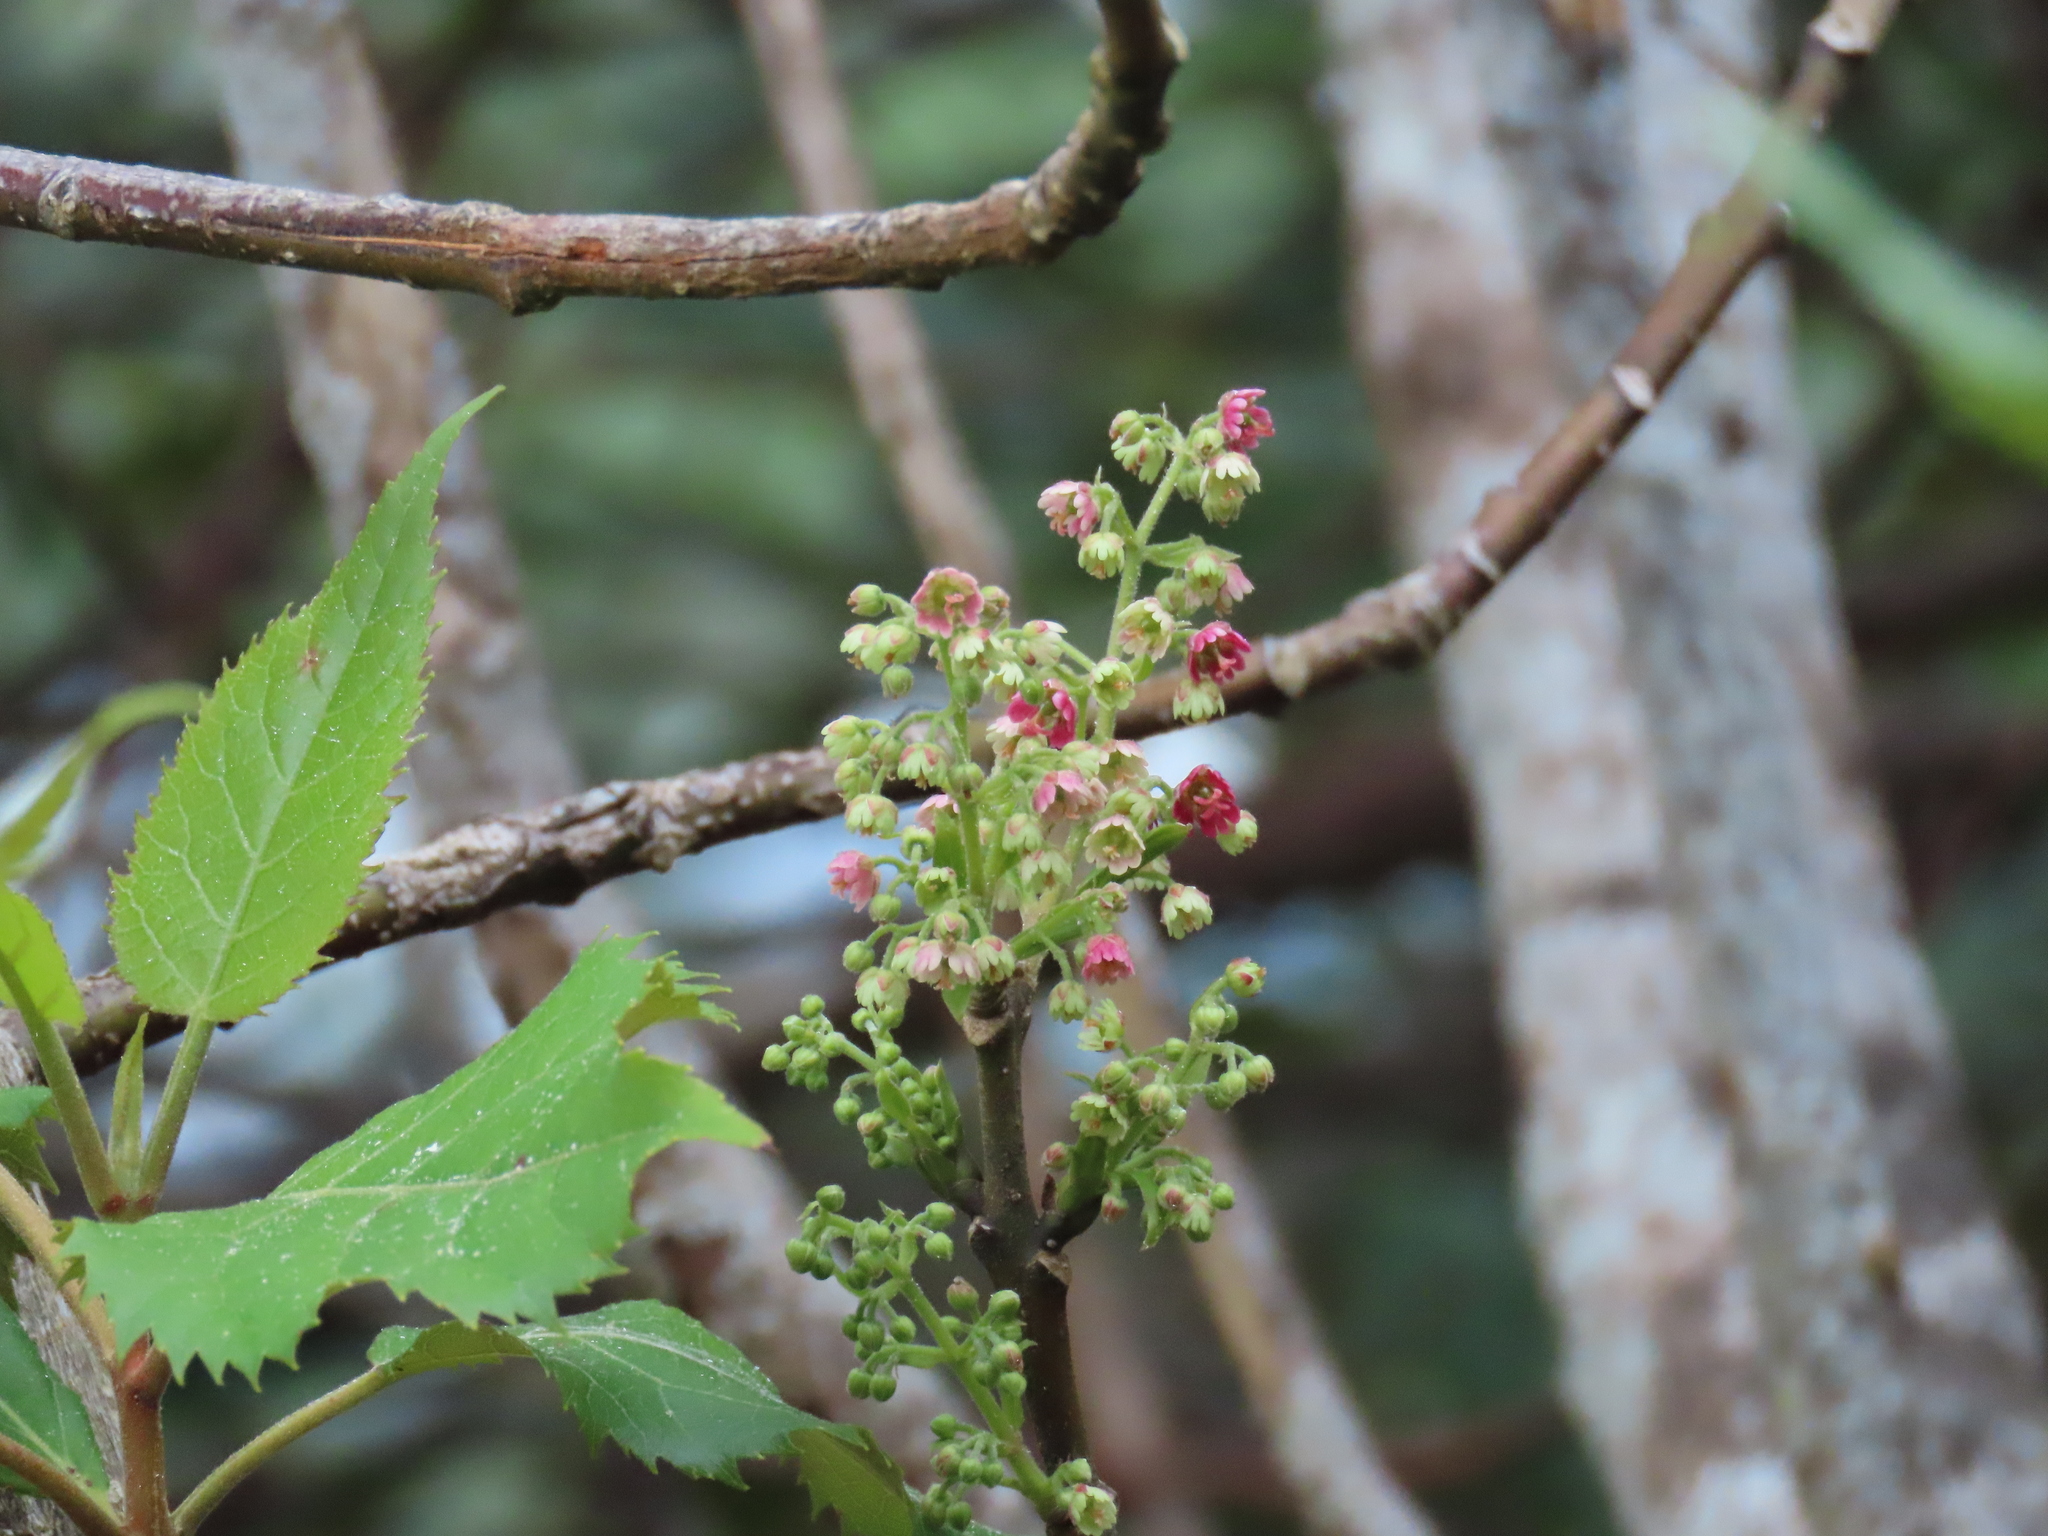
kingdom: Plantae
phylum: Tracheophyta
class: Magnoliopsida
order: Oxalidales
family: Elaeocarpaceae
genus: Aristotelia
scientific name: Aristotelia serrata
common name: New zealand wineberry
